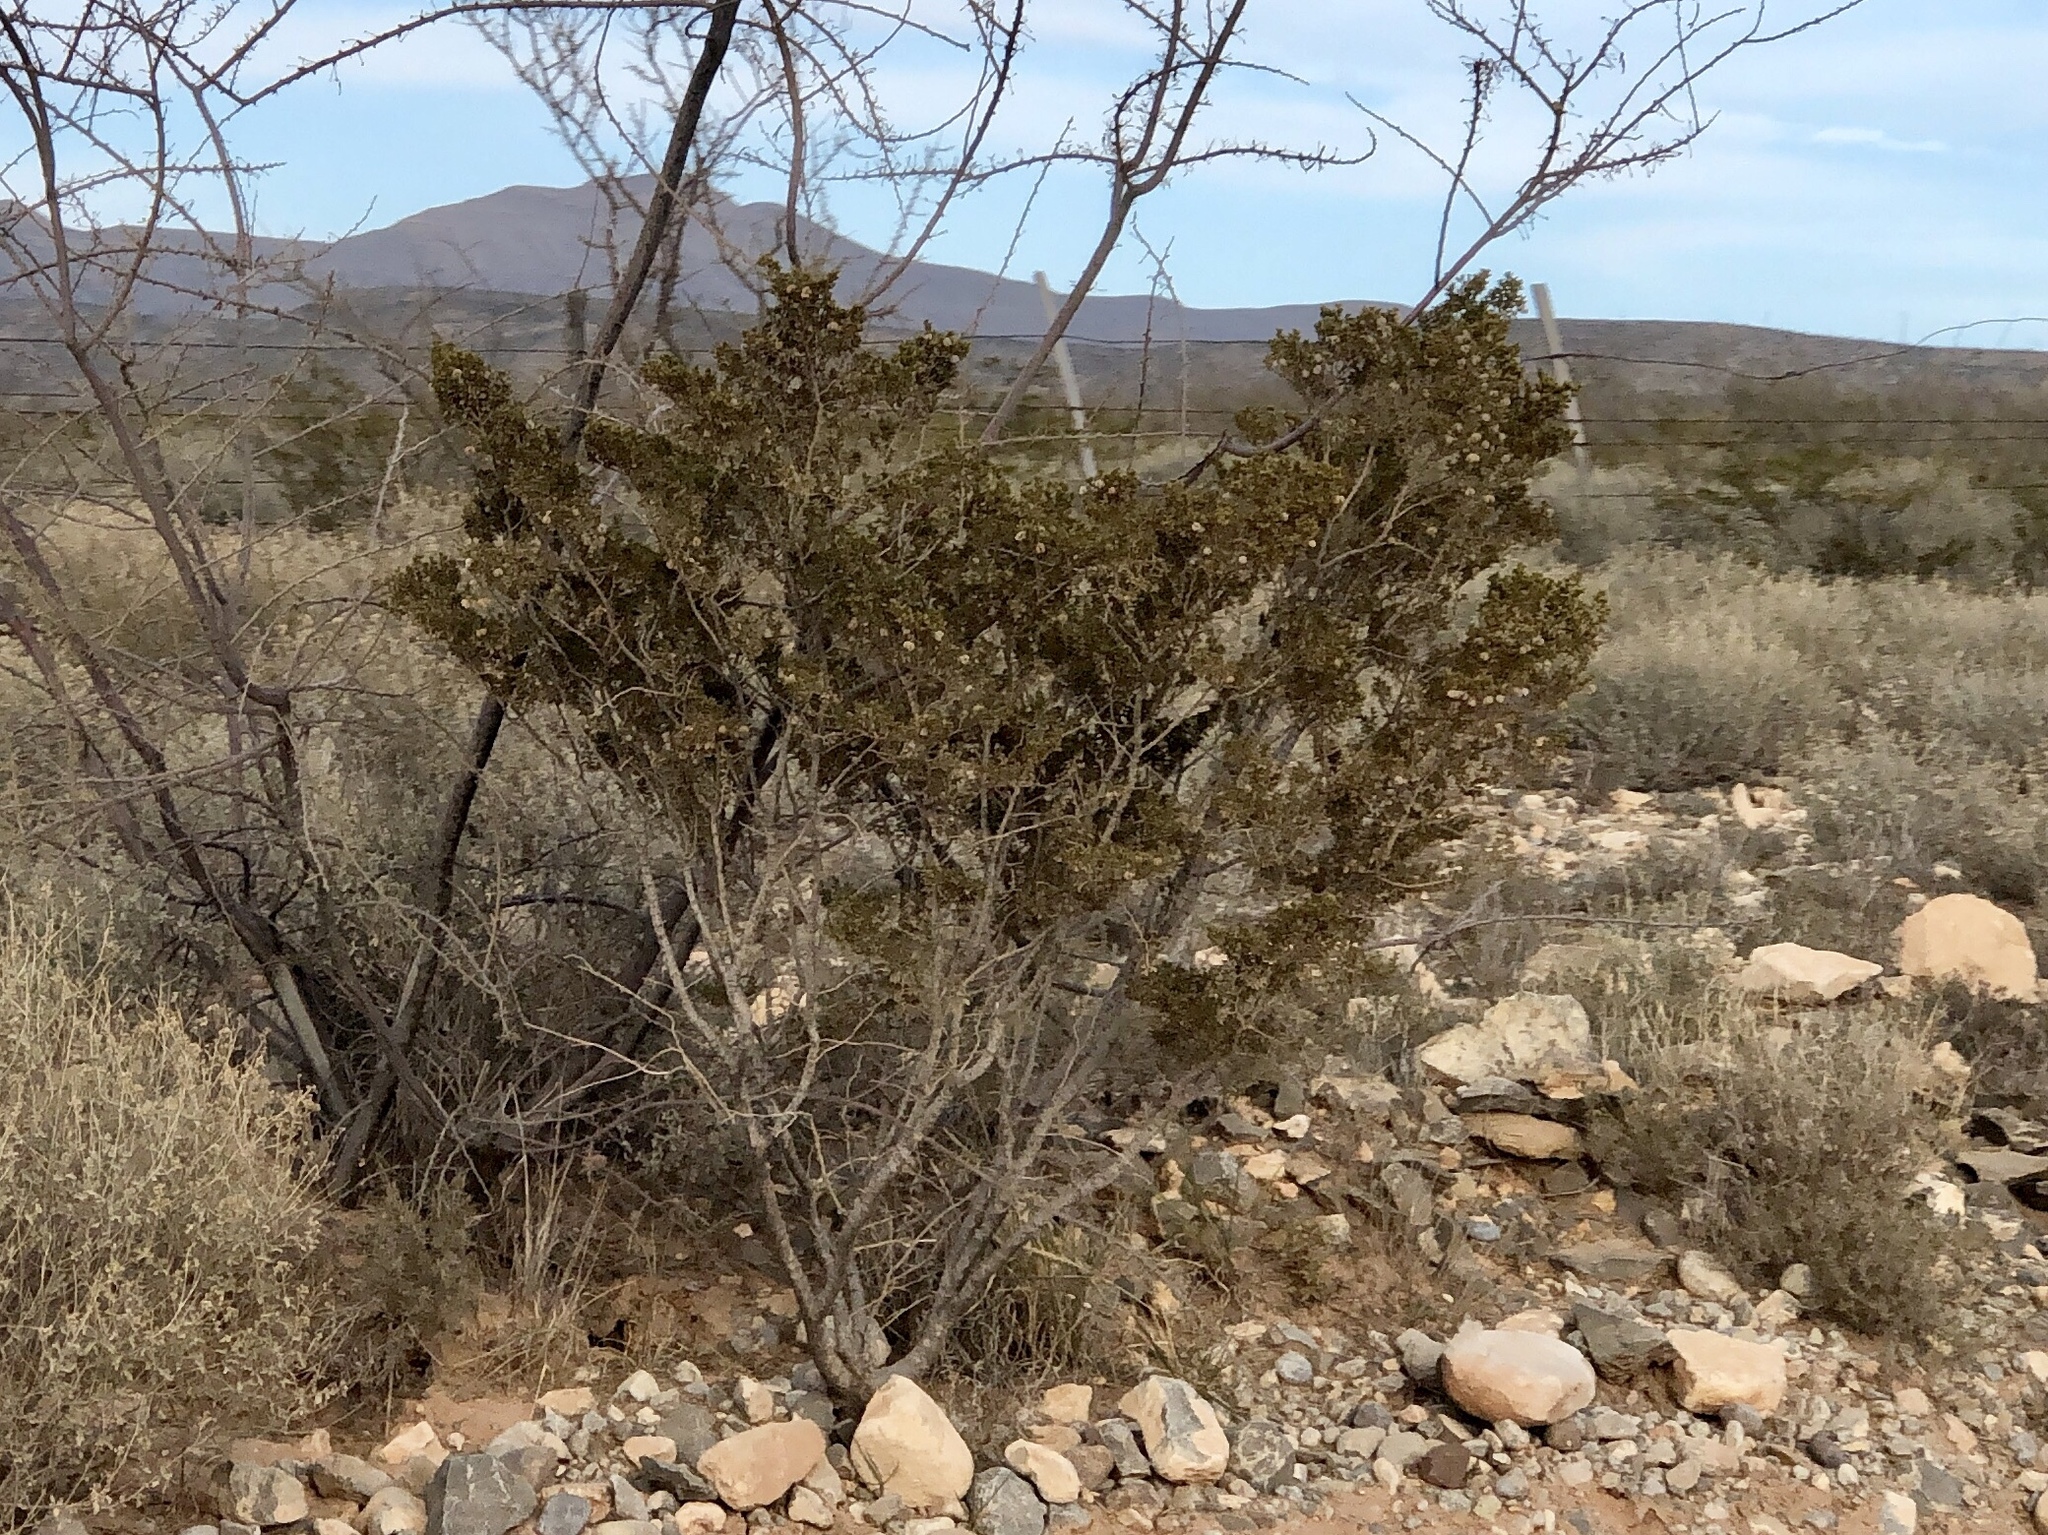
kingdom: Plantae
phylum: Tracheophyta
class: Magnoliopsida
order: Zygophyllales
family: Zygophyllaceae
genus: Larrea
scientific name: Larrea tridentata
